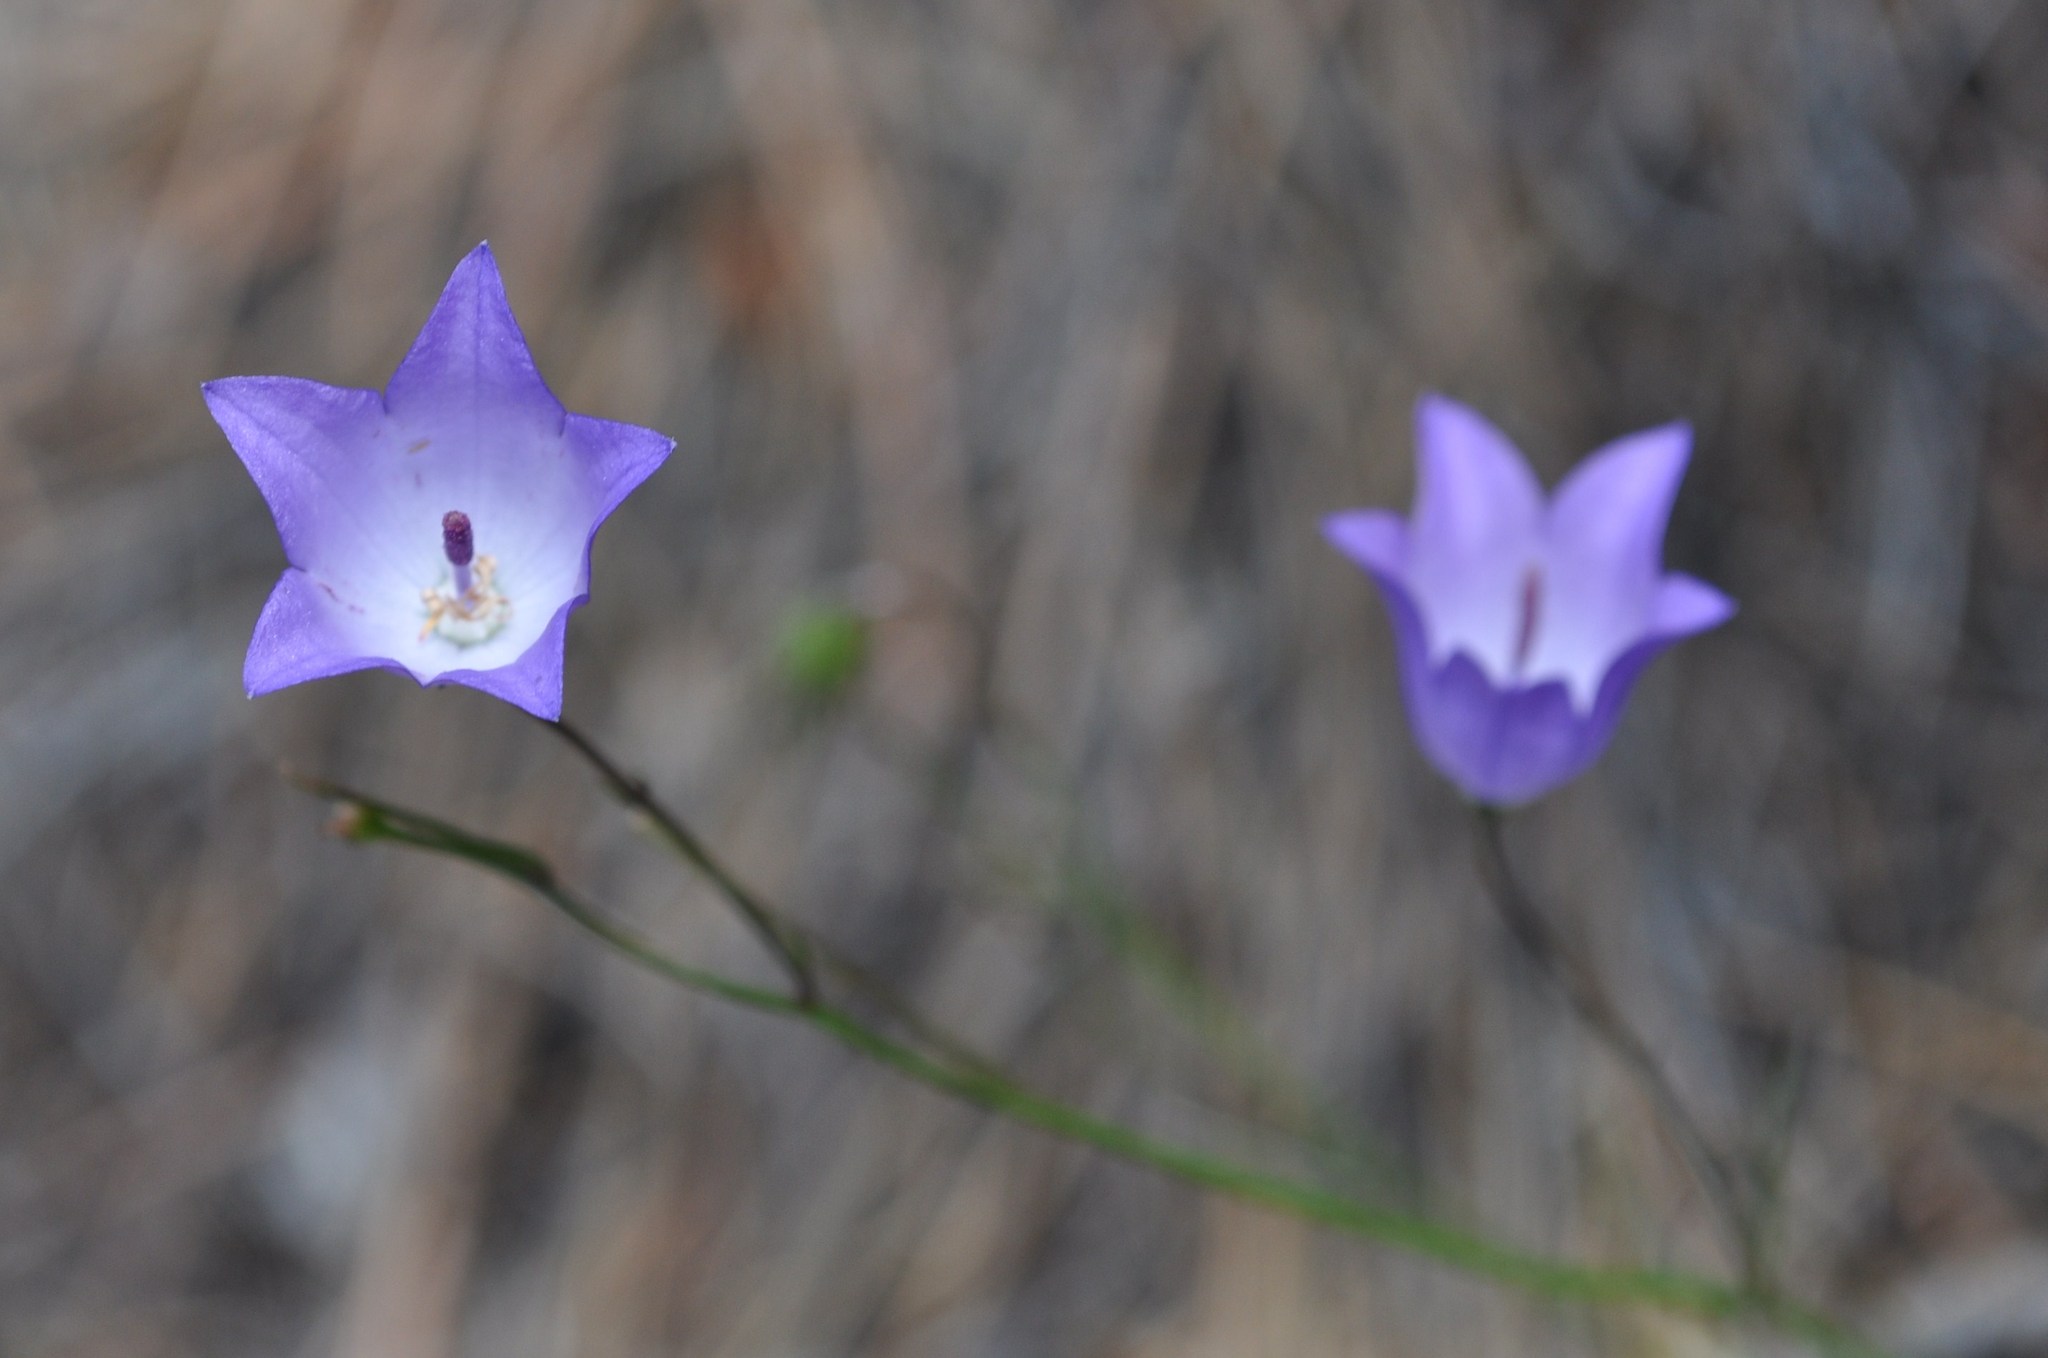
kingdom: Plantae
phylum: Tracheophyta
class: Magnoliopsida
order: Asterales
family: Campanulaceae
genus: Campanula
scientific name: Campanula petiolata
